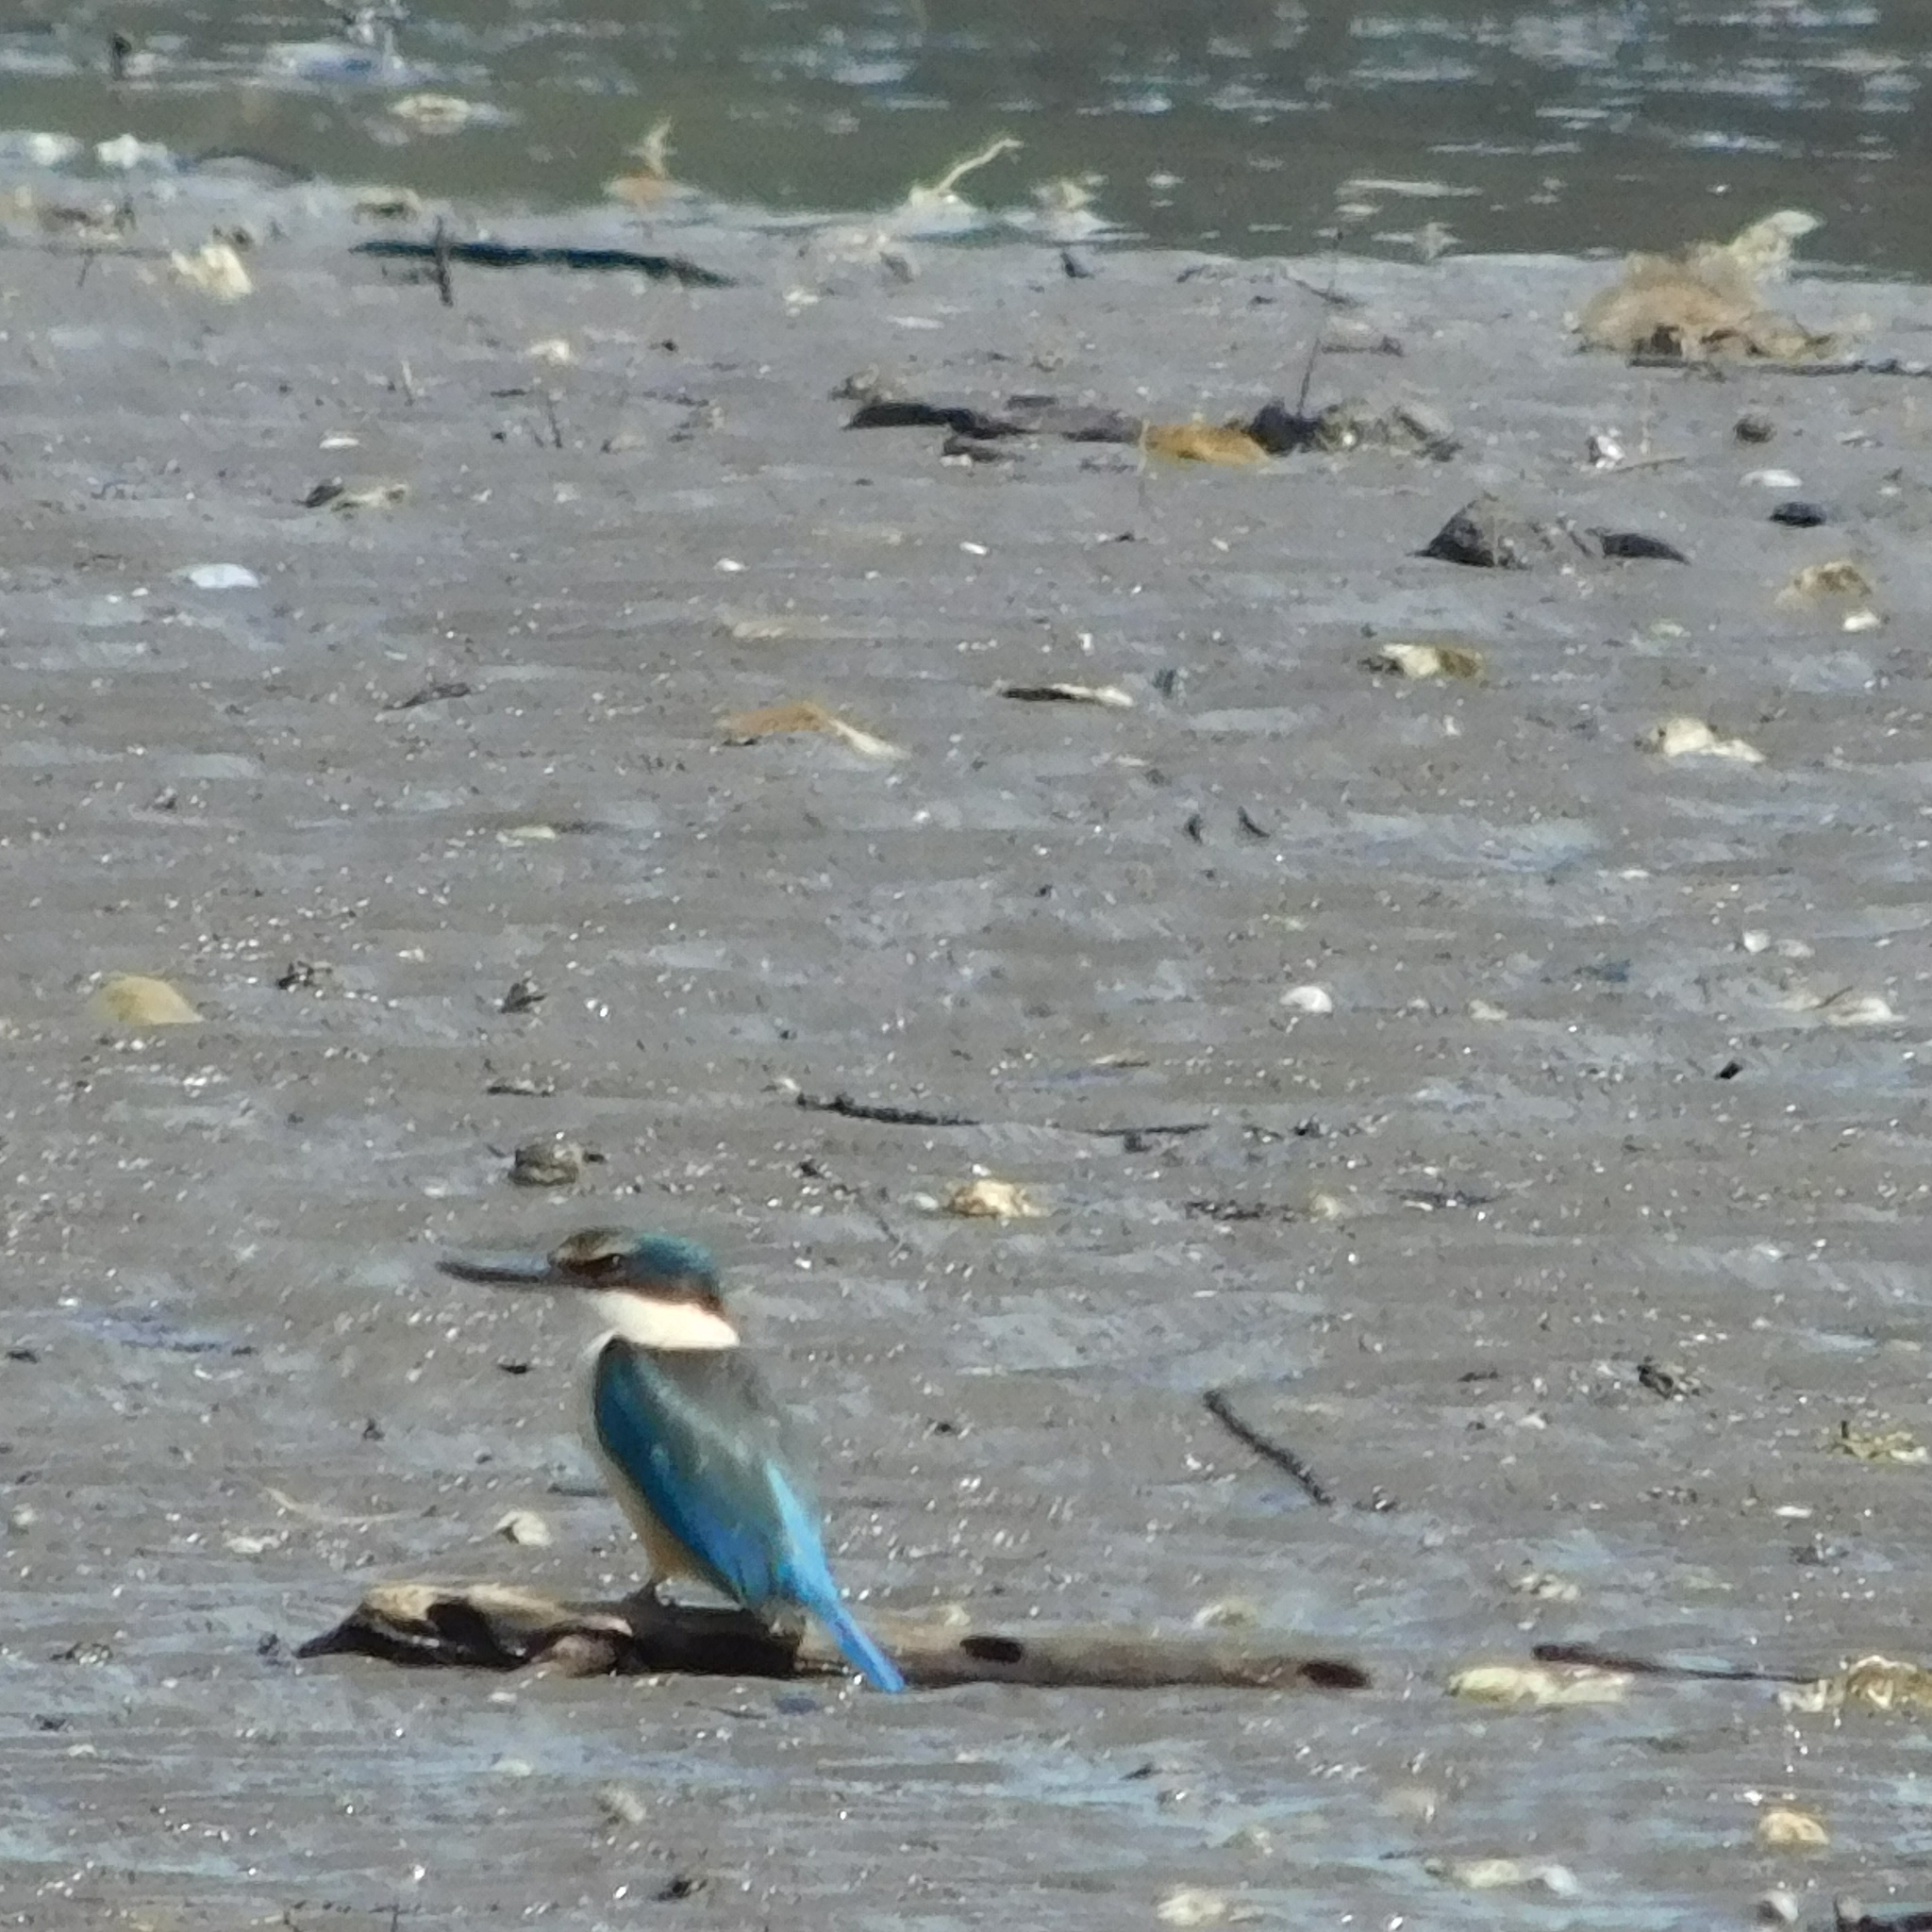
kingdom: Animalia
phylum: Chordata
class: Aves
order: Coraciiformes
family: Alcedinidae
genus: Todiramphus
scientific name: Todiramphus sanctus
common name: Sacred kingfisher
